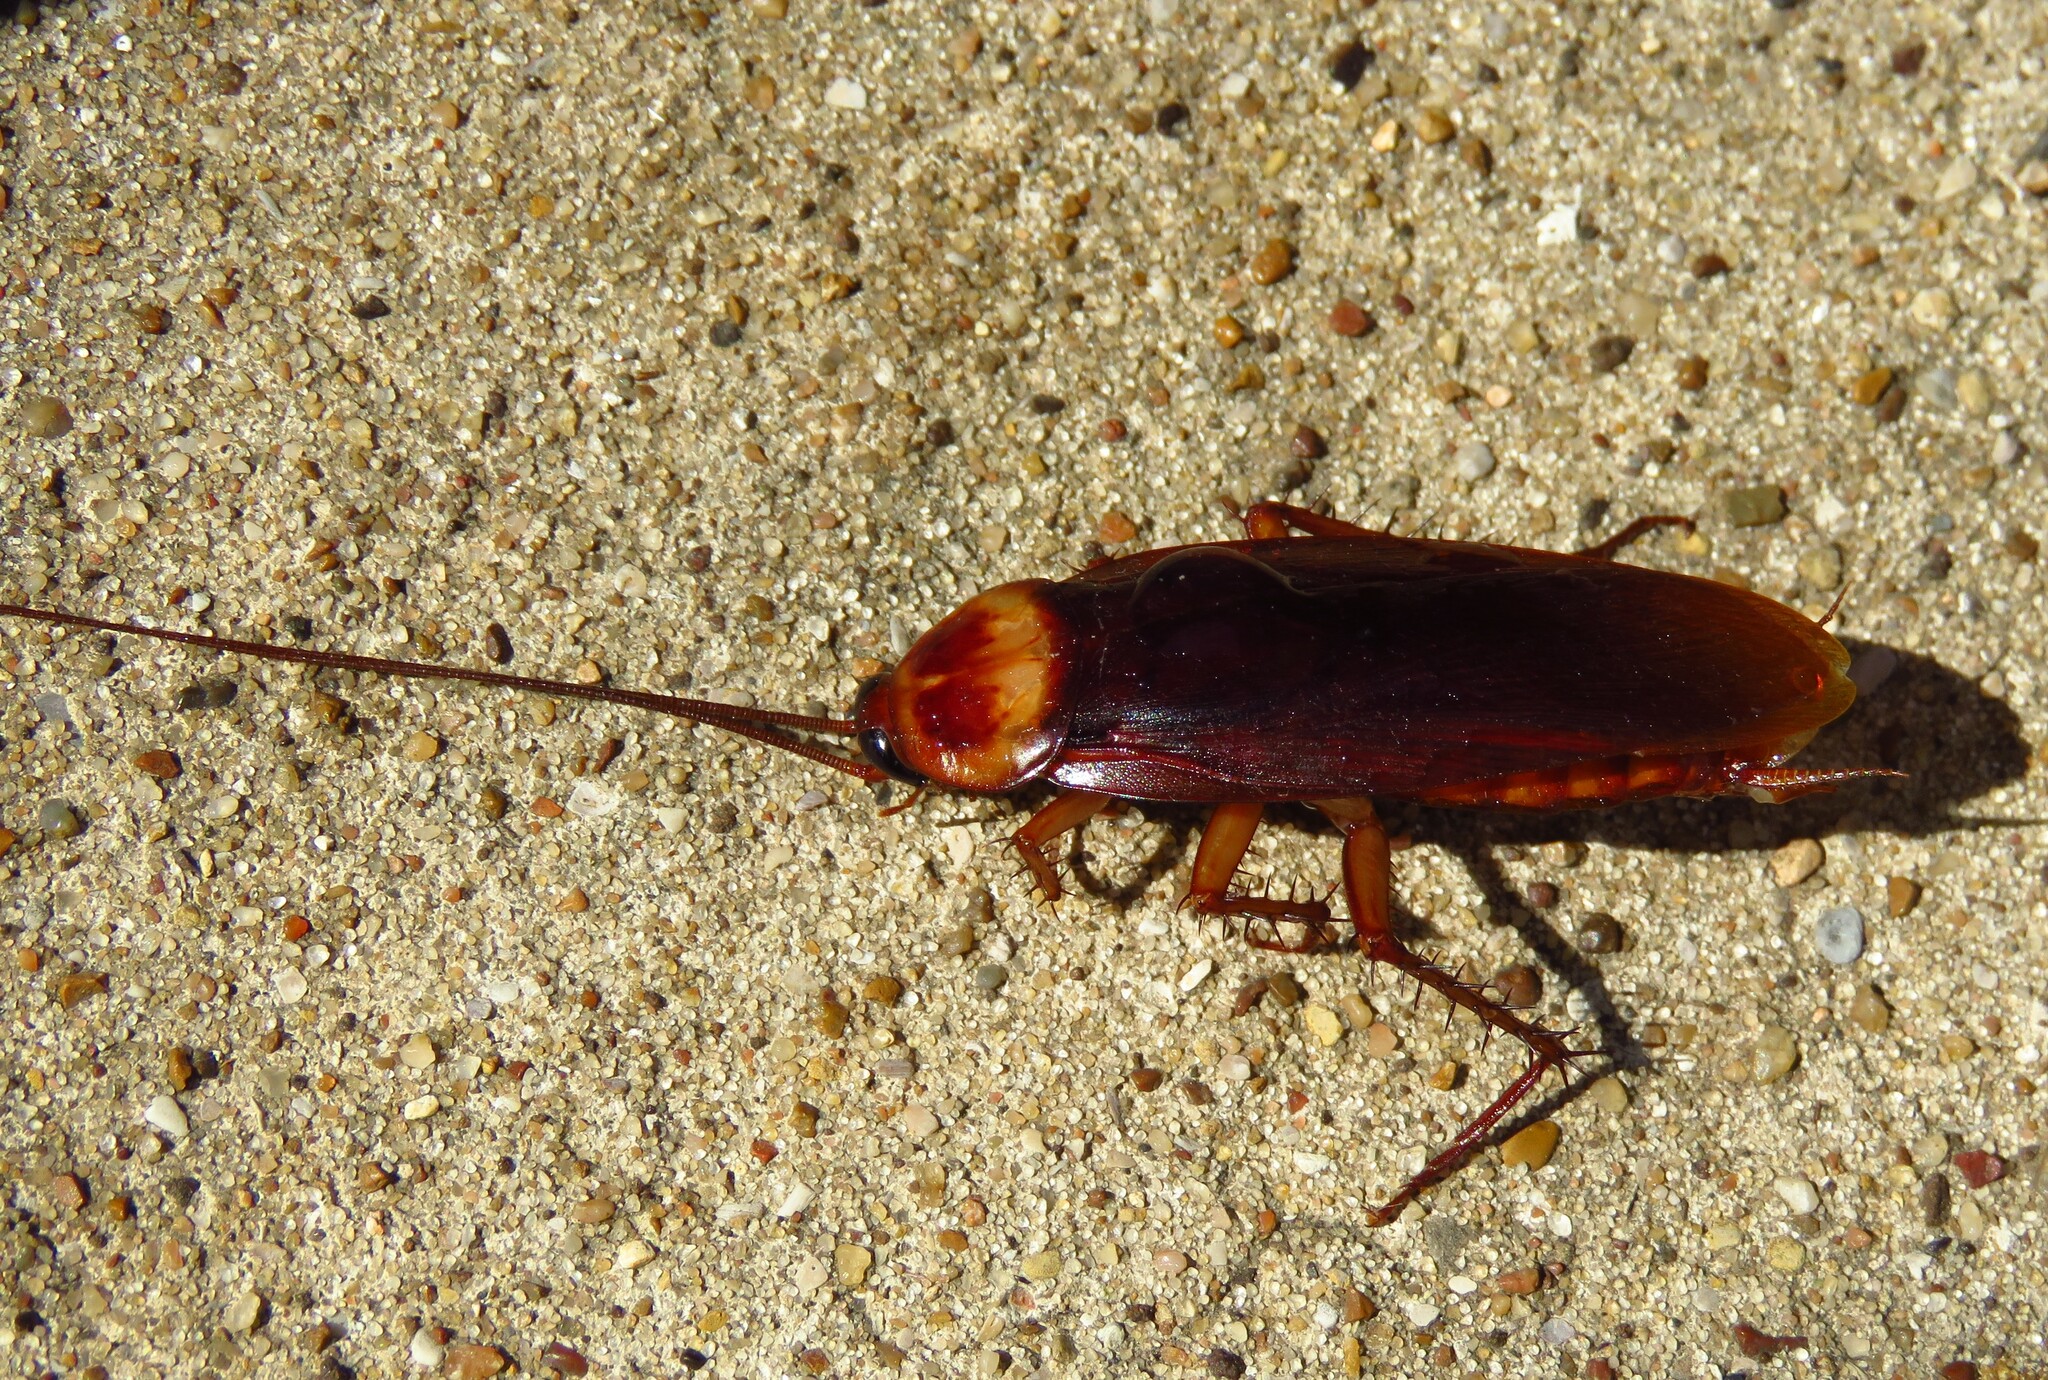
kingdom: Animalia
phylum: Arthropoda
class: Insecta
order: Blattodea
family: Blattidae
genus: Periplaneta
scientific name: Periplaneta americana
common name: American cockroach
